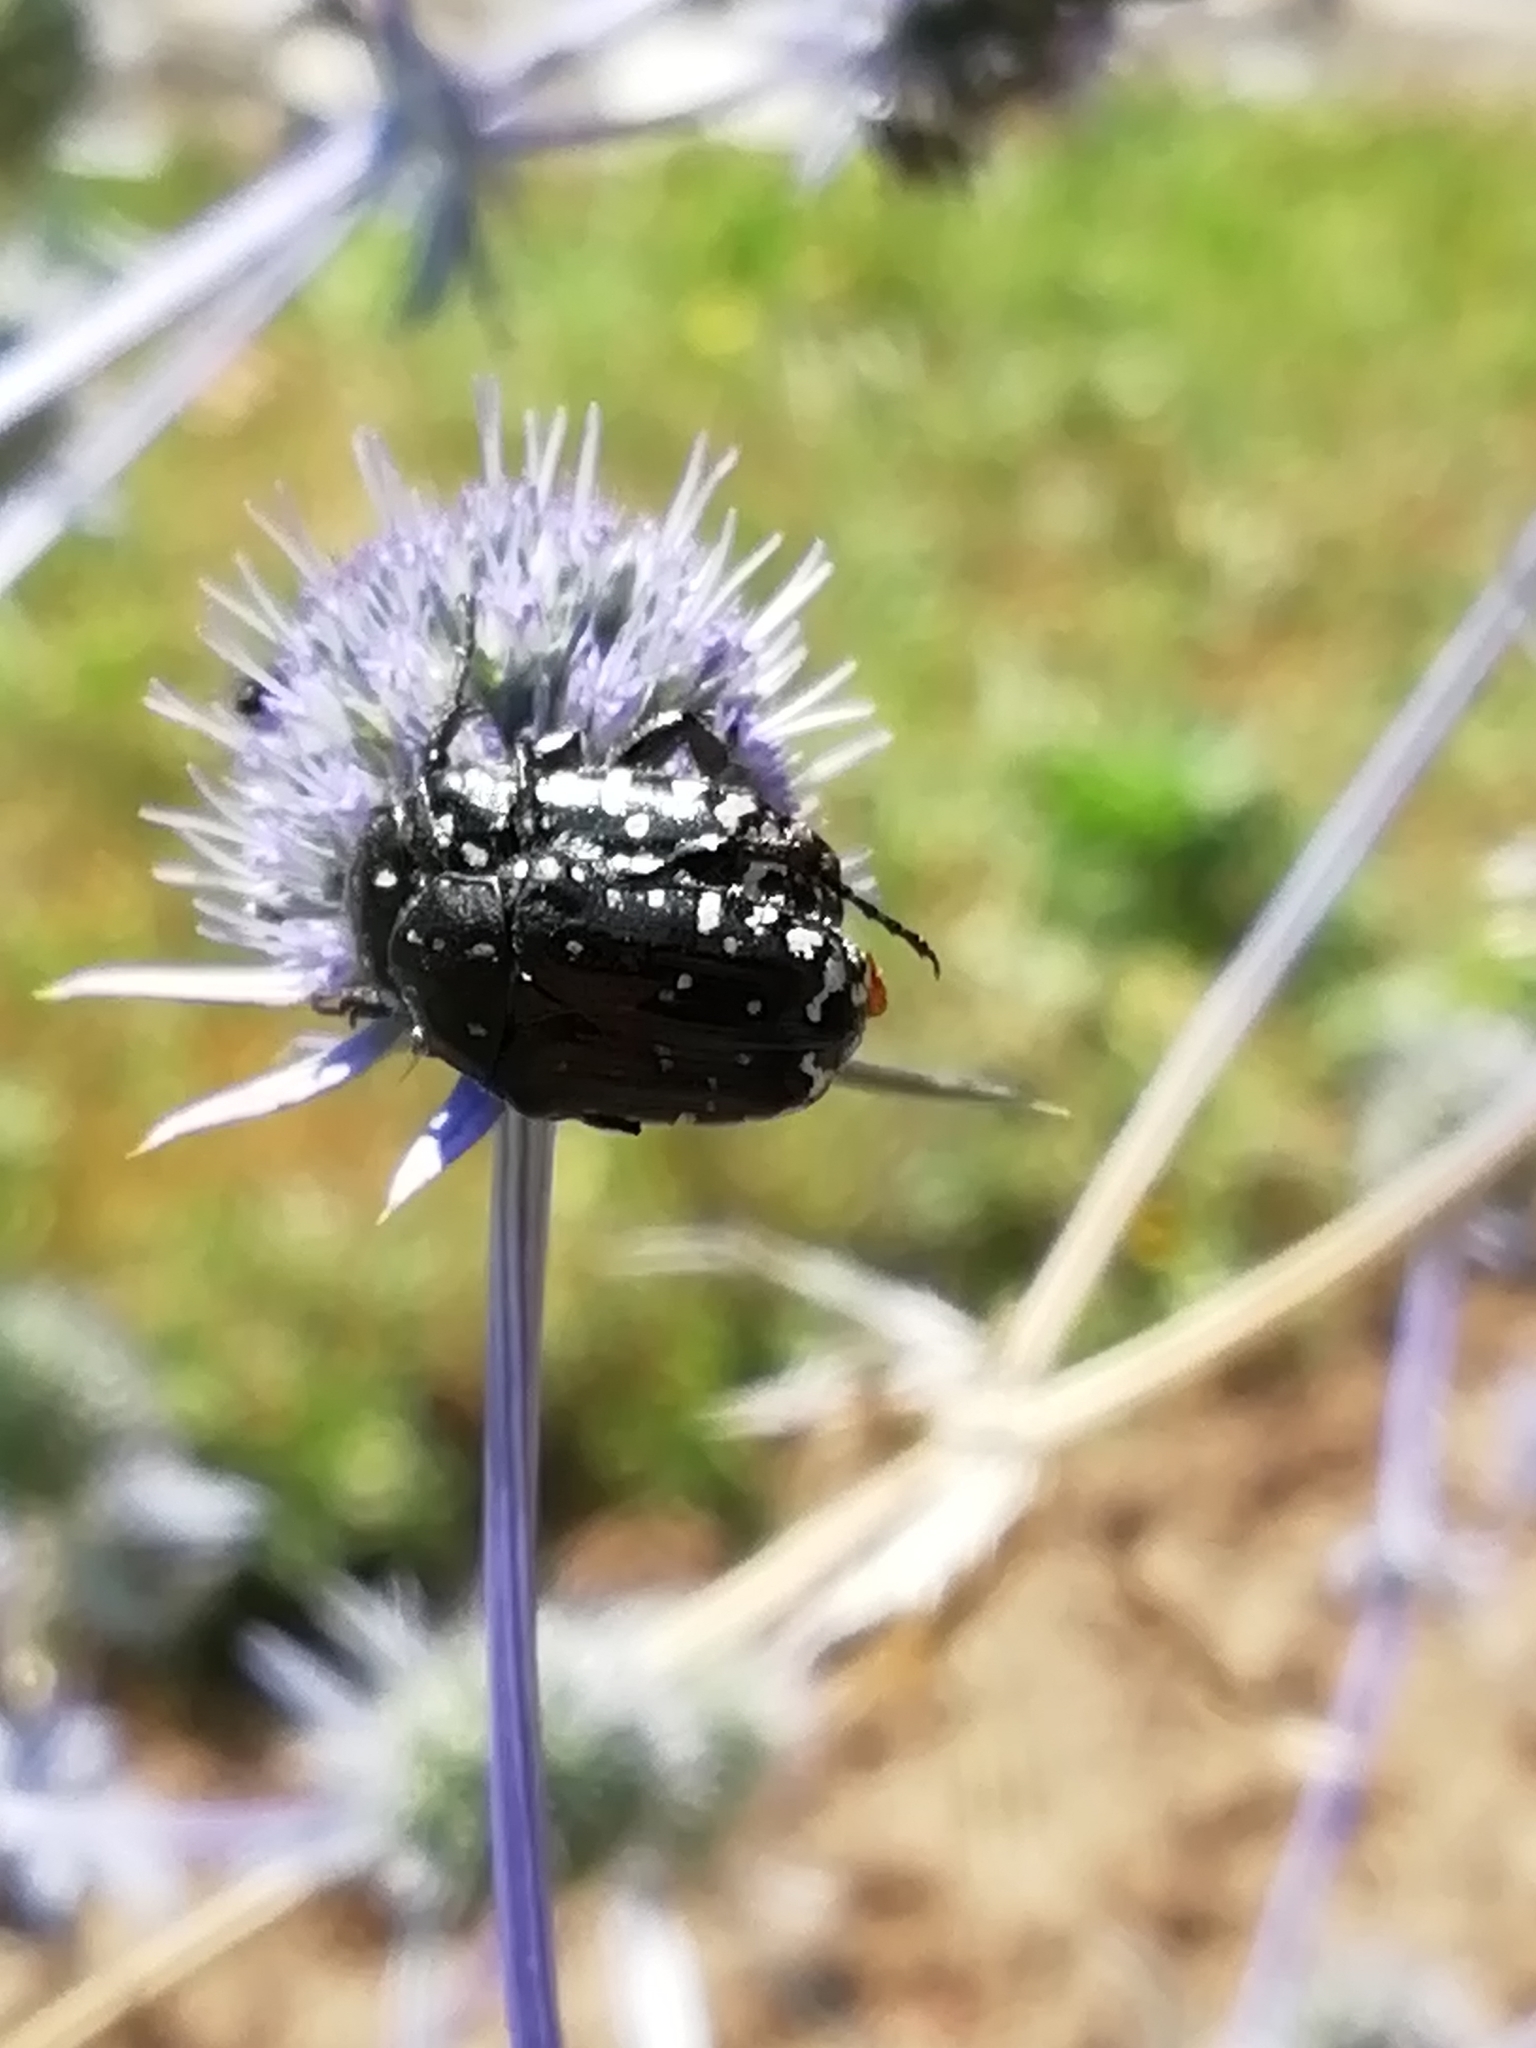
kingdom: Animalia
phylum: Arthropoda
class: Insecta
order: Coleoptera
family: Scarabaeidae
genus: Oxythyrea
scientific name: Oxythyrea funesta
